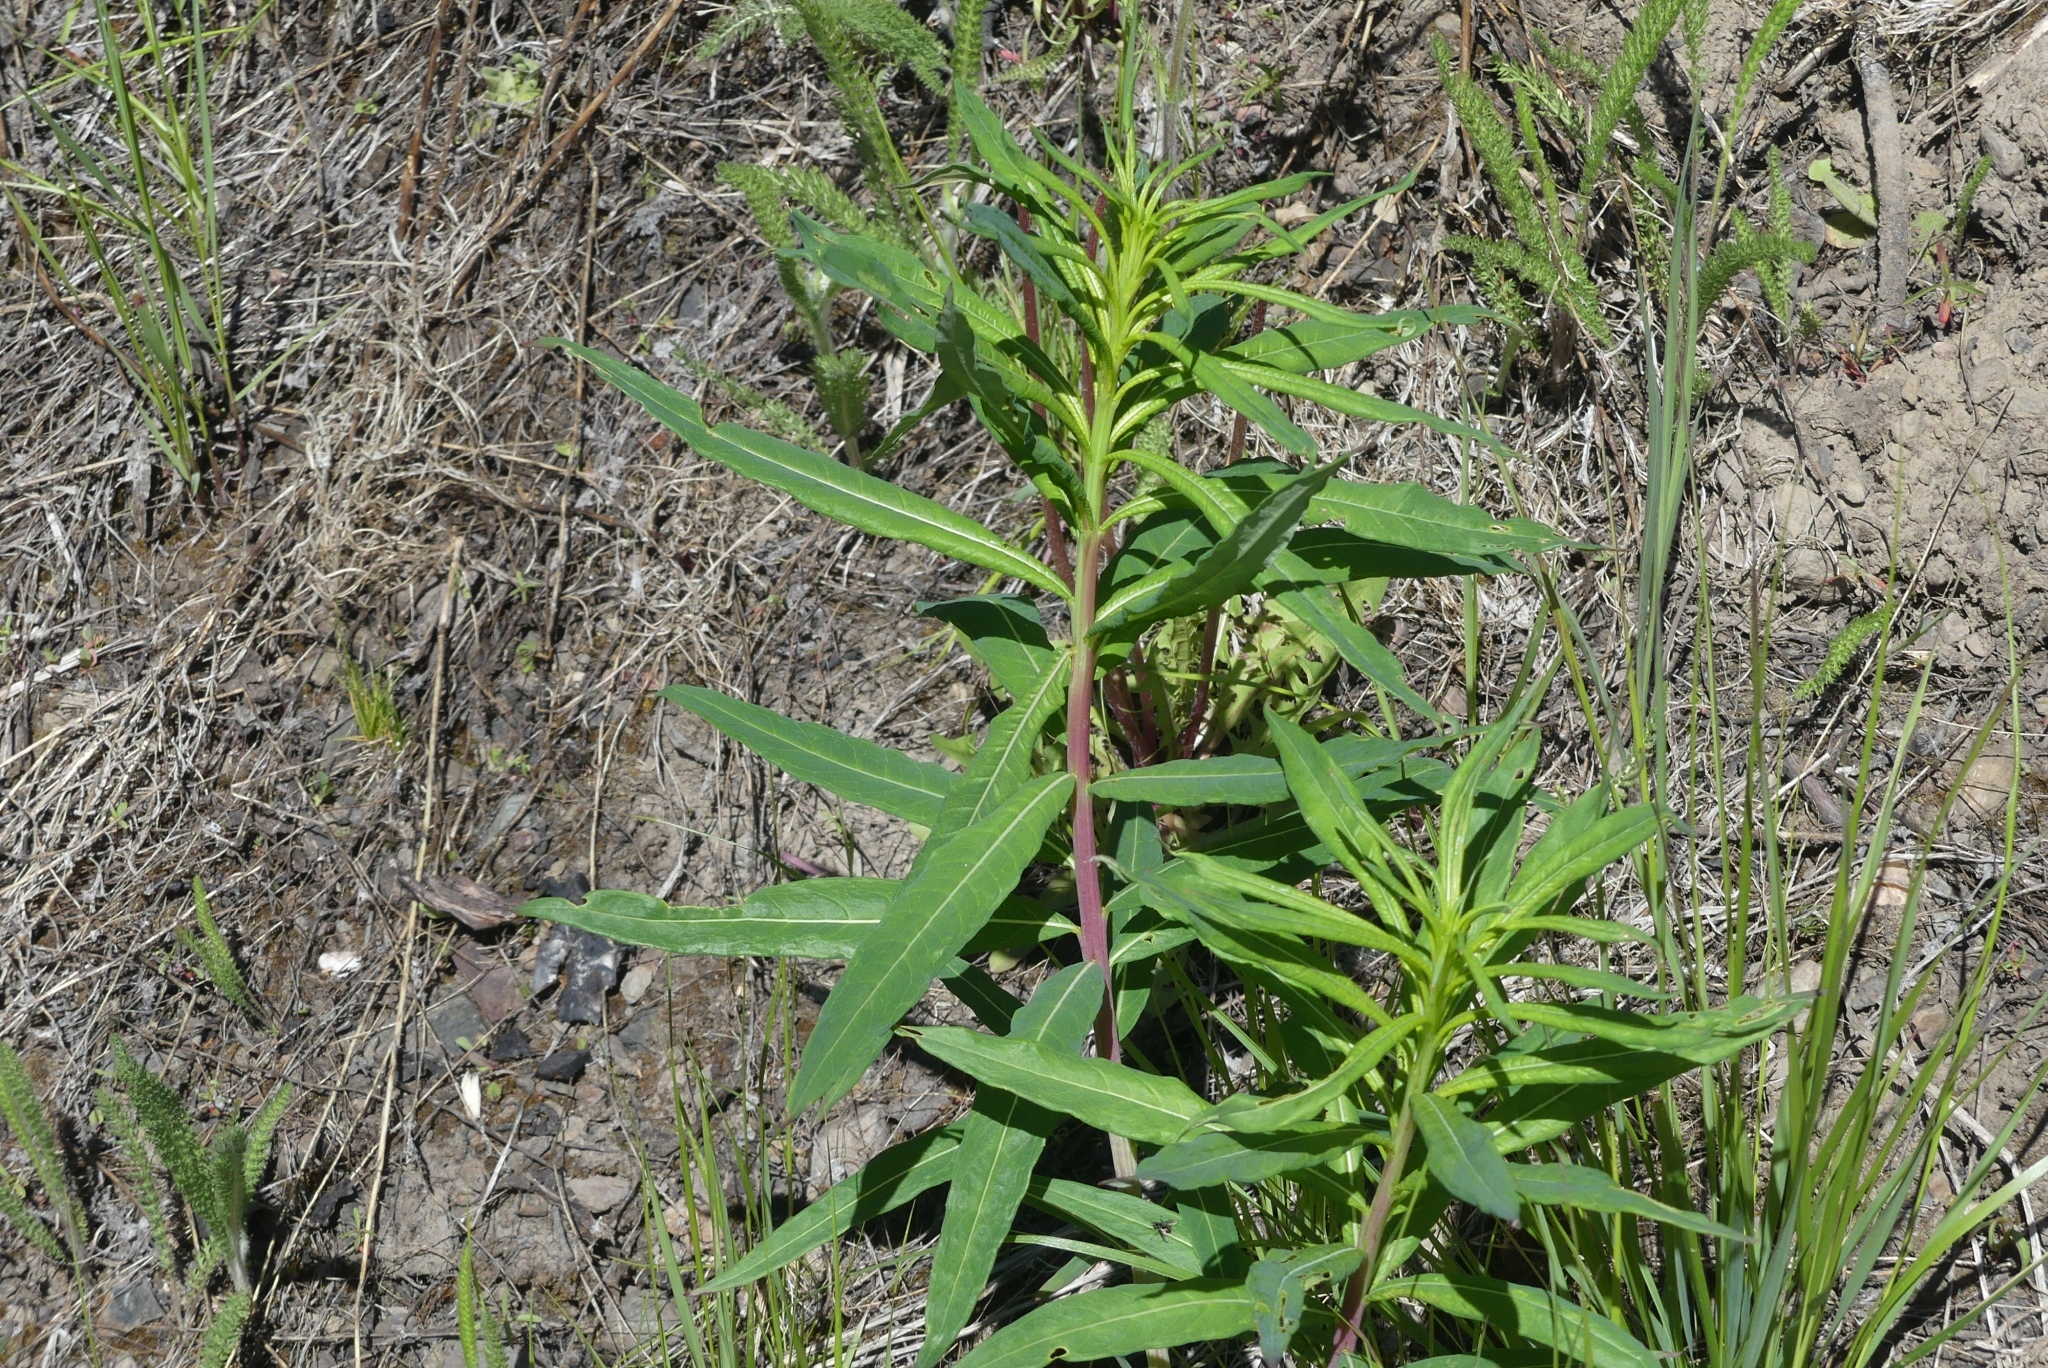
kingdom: Plantae
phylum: Tracheophyta
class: Magnoliopsida
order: Myrtales
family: Onagraceae
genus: Chamaenerion
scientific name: Chamaenerion angustifolium
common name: Fireweed
